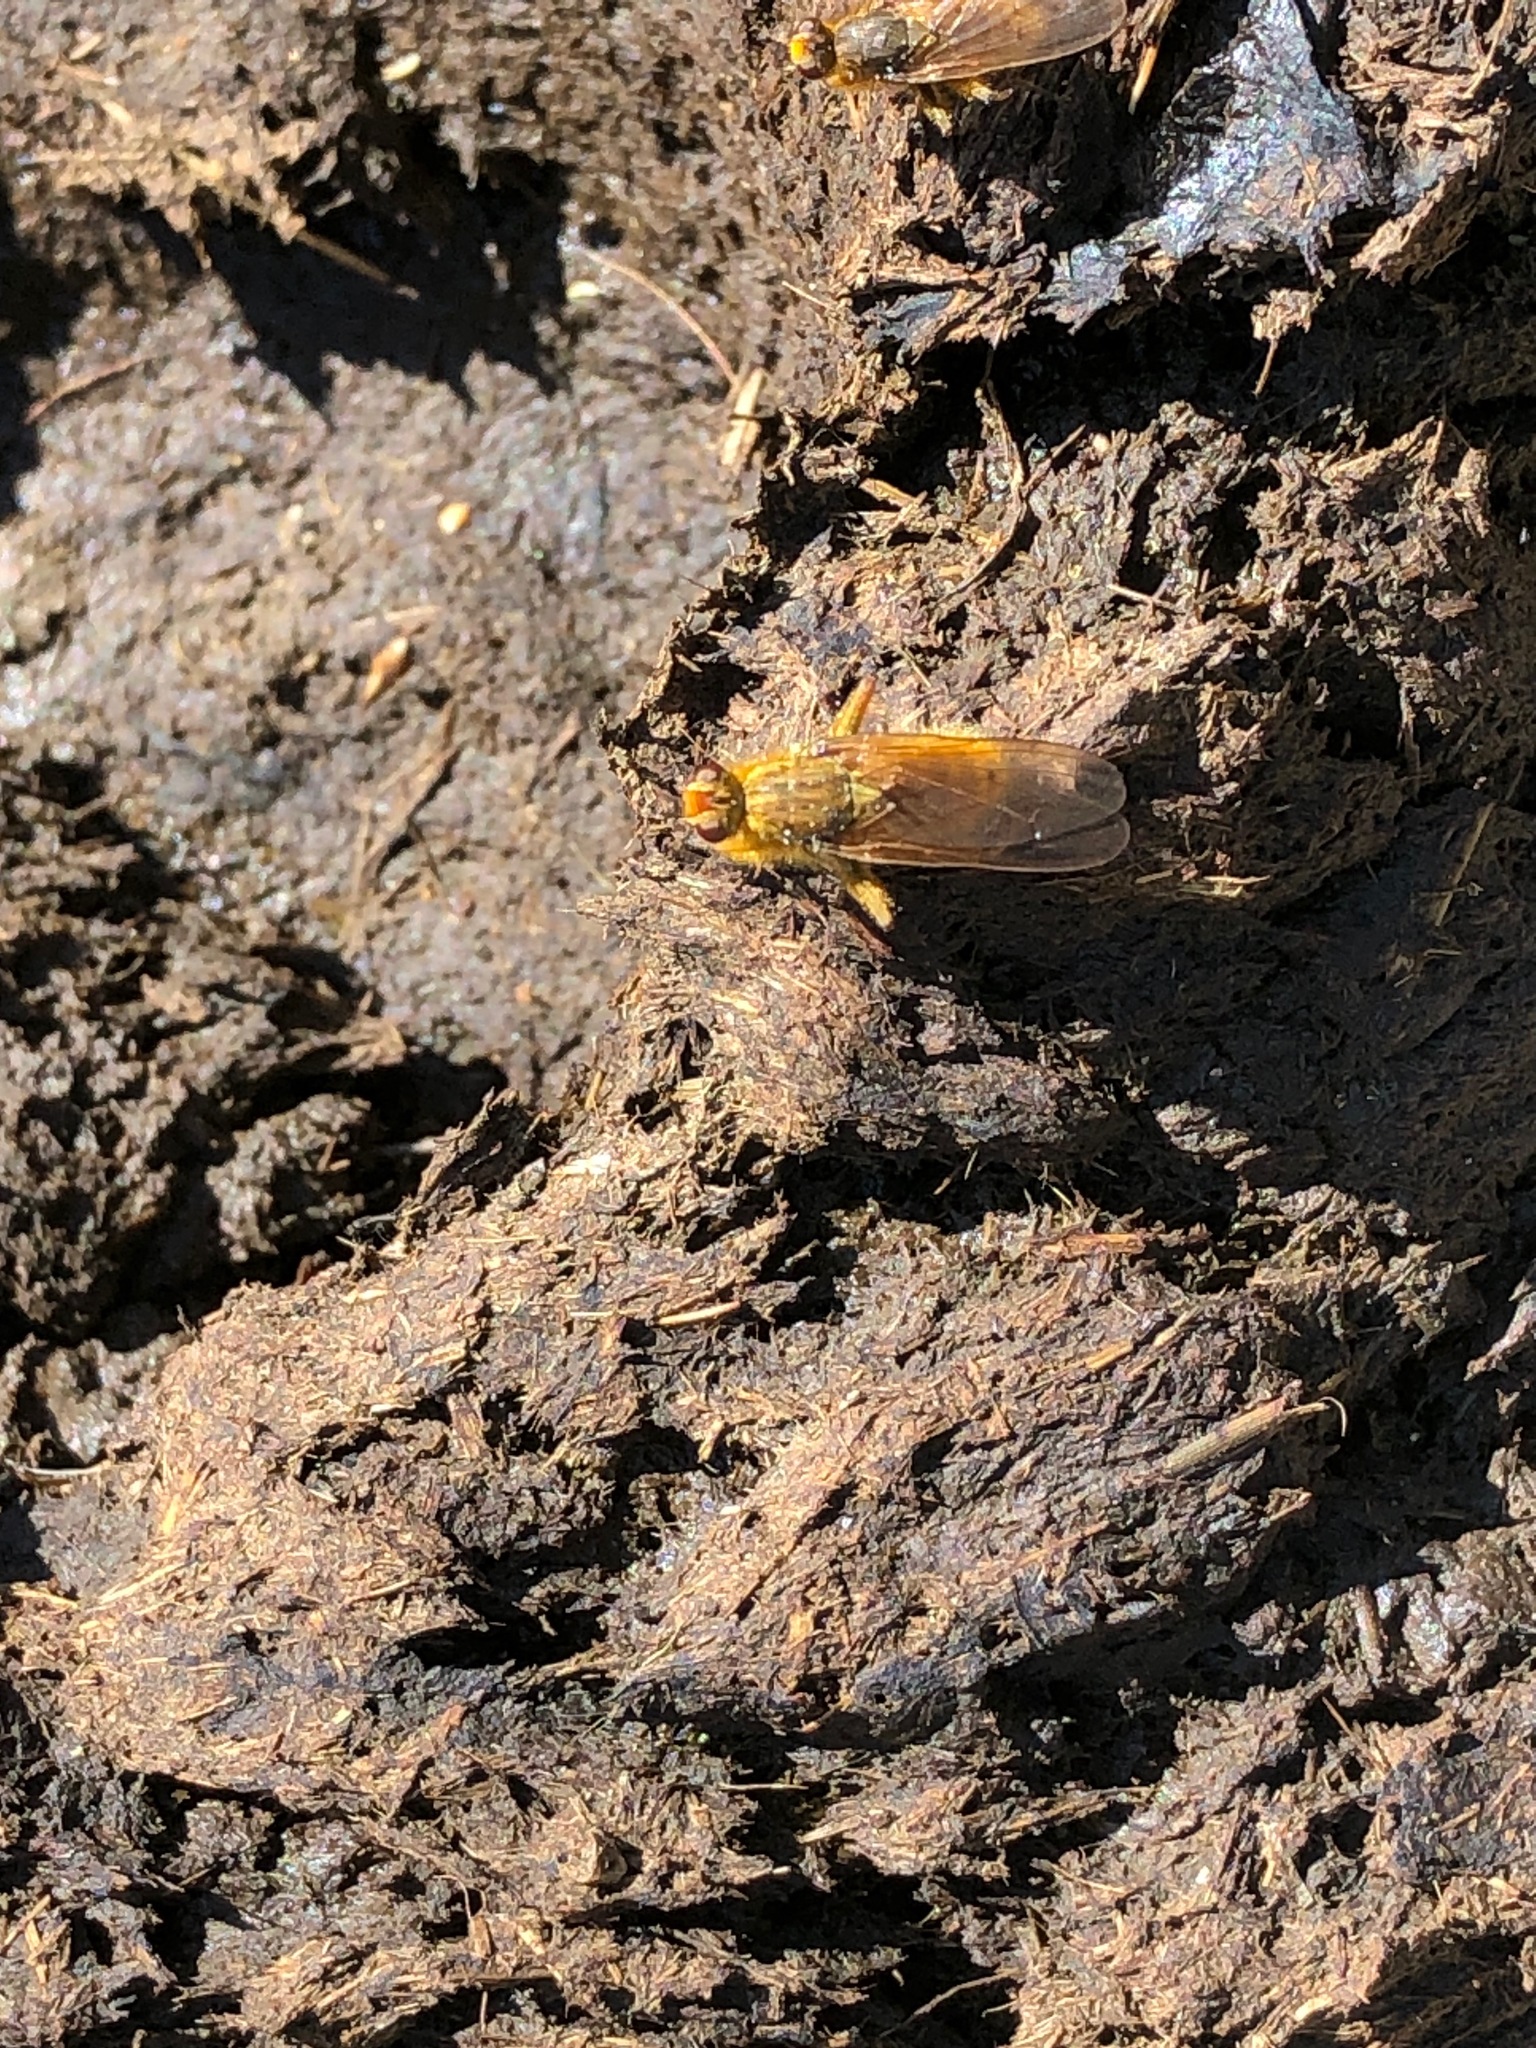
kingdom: Animalia
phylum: Arthropoda
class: Insecta
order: Diptera
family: Scathophagidae
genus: Scathophaga
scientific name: Scathophaga stercoraria
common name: Yellow dung fly
